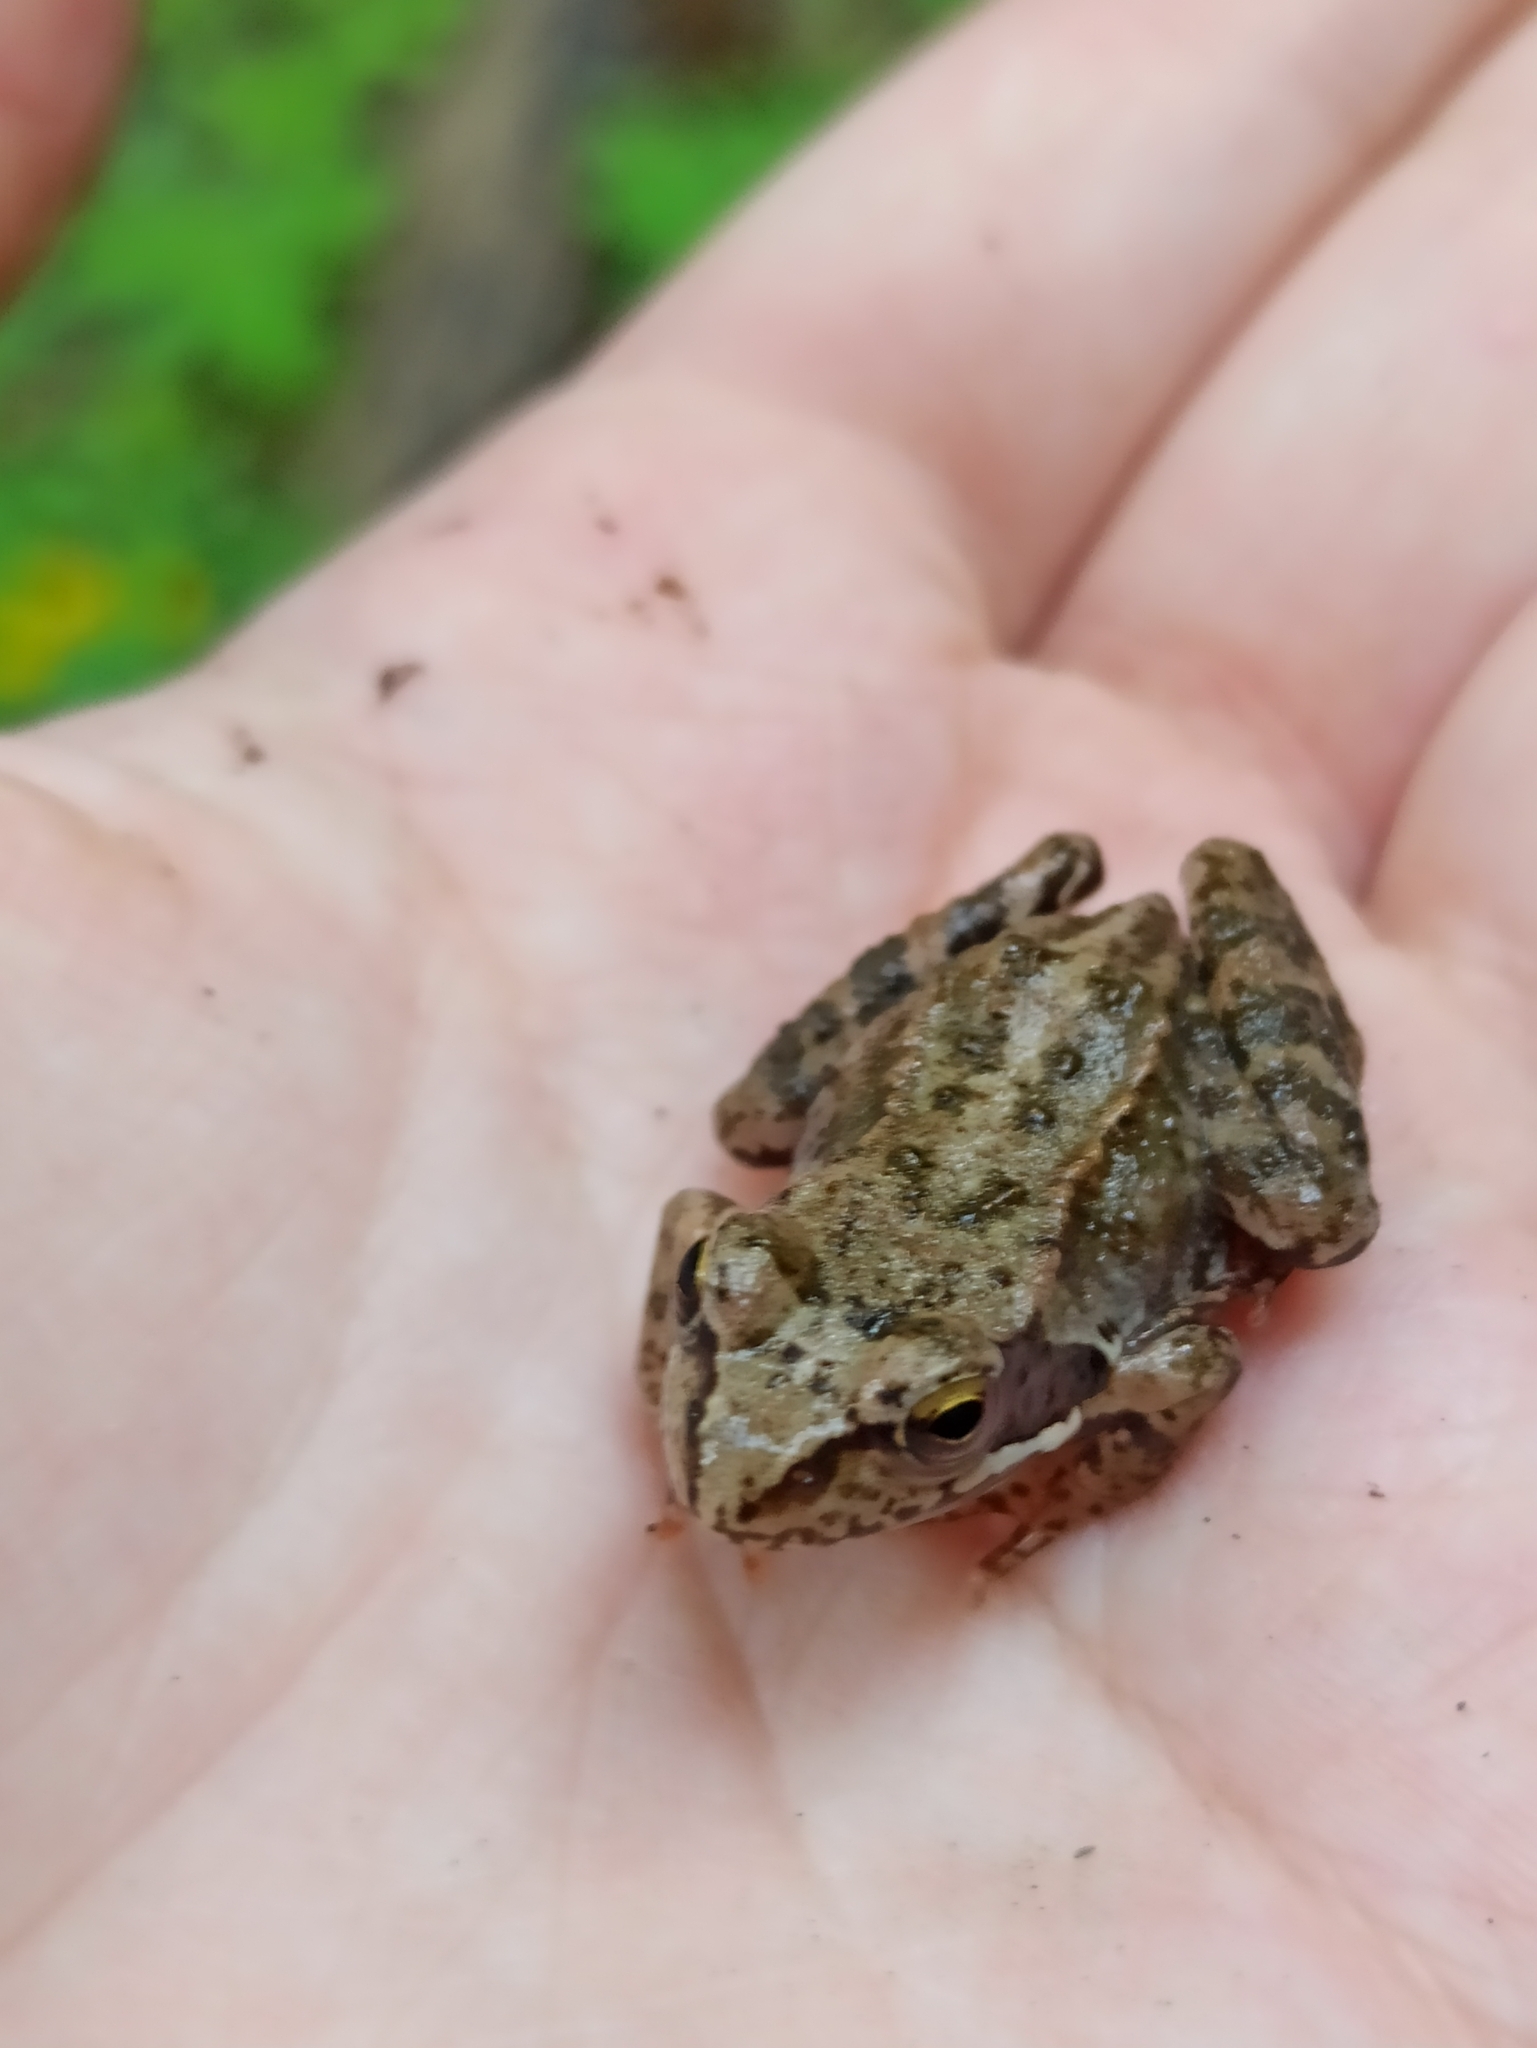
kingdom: Animalia
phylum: Chordata
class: Amphibia
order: Anura
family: Ranidae
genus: Rana
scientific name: Rana temporaria
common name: Common frog
